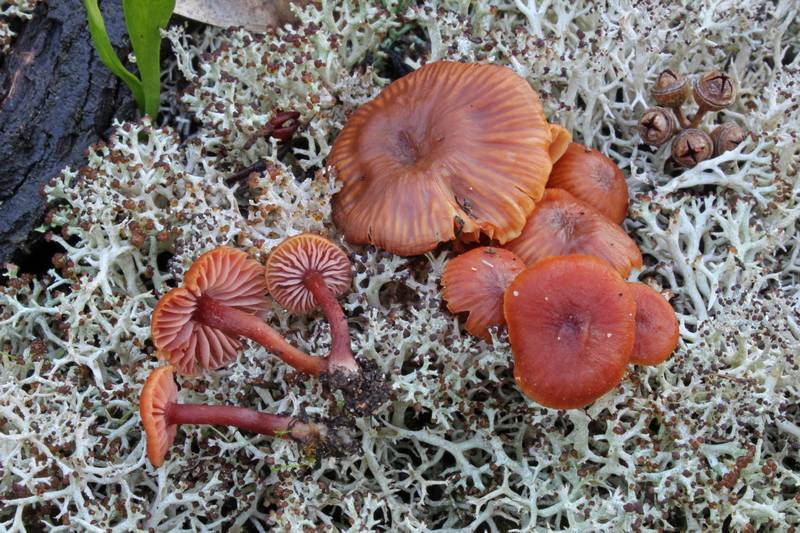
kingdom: Fungi
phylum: Basidiomycota
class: Agaricomycetes
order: Agaricales
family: Hydnangiaceae
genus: Laccaria
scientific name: Laccaria fraterna
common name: Gumtree deceiver
